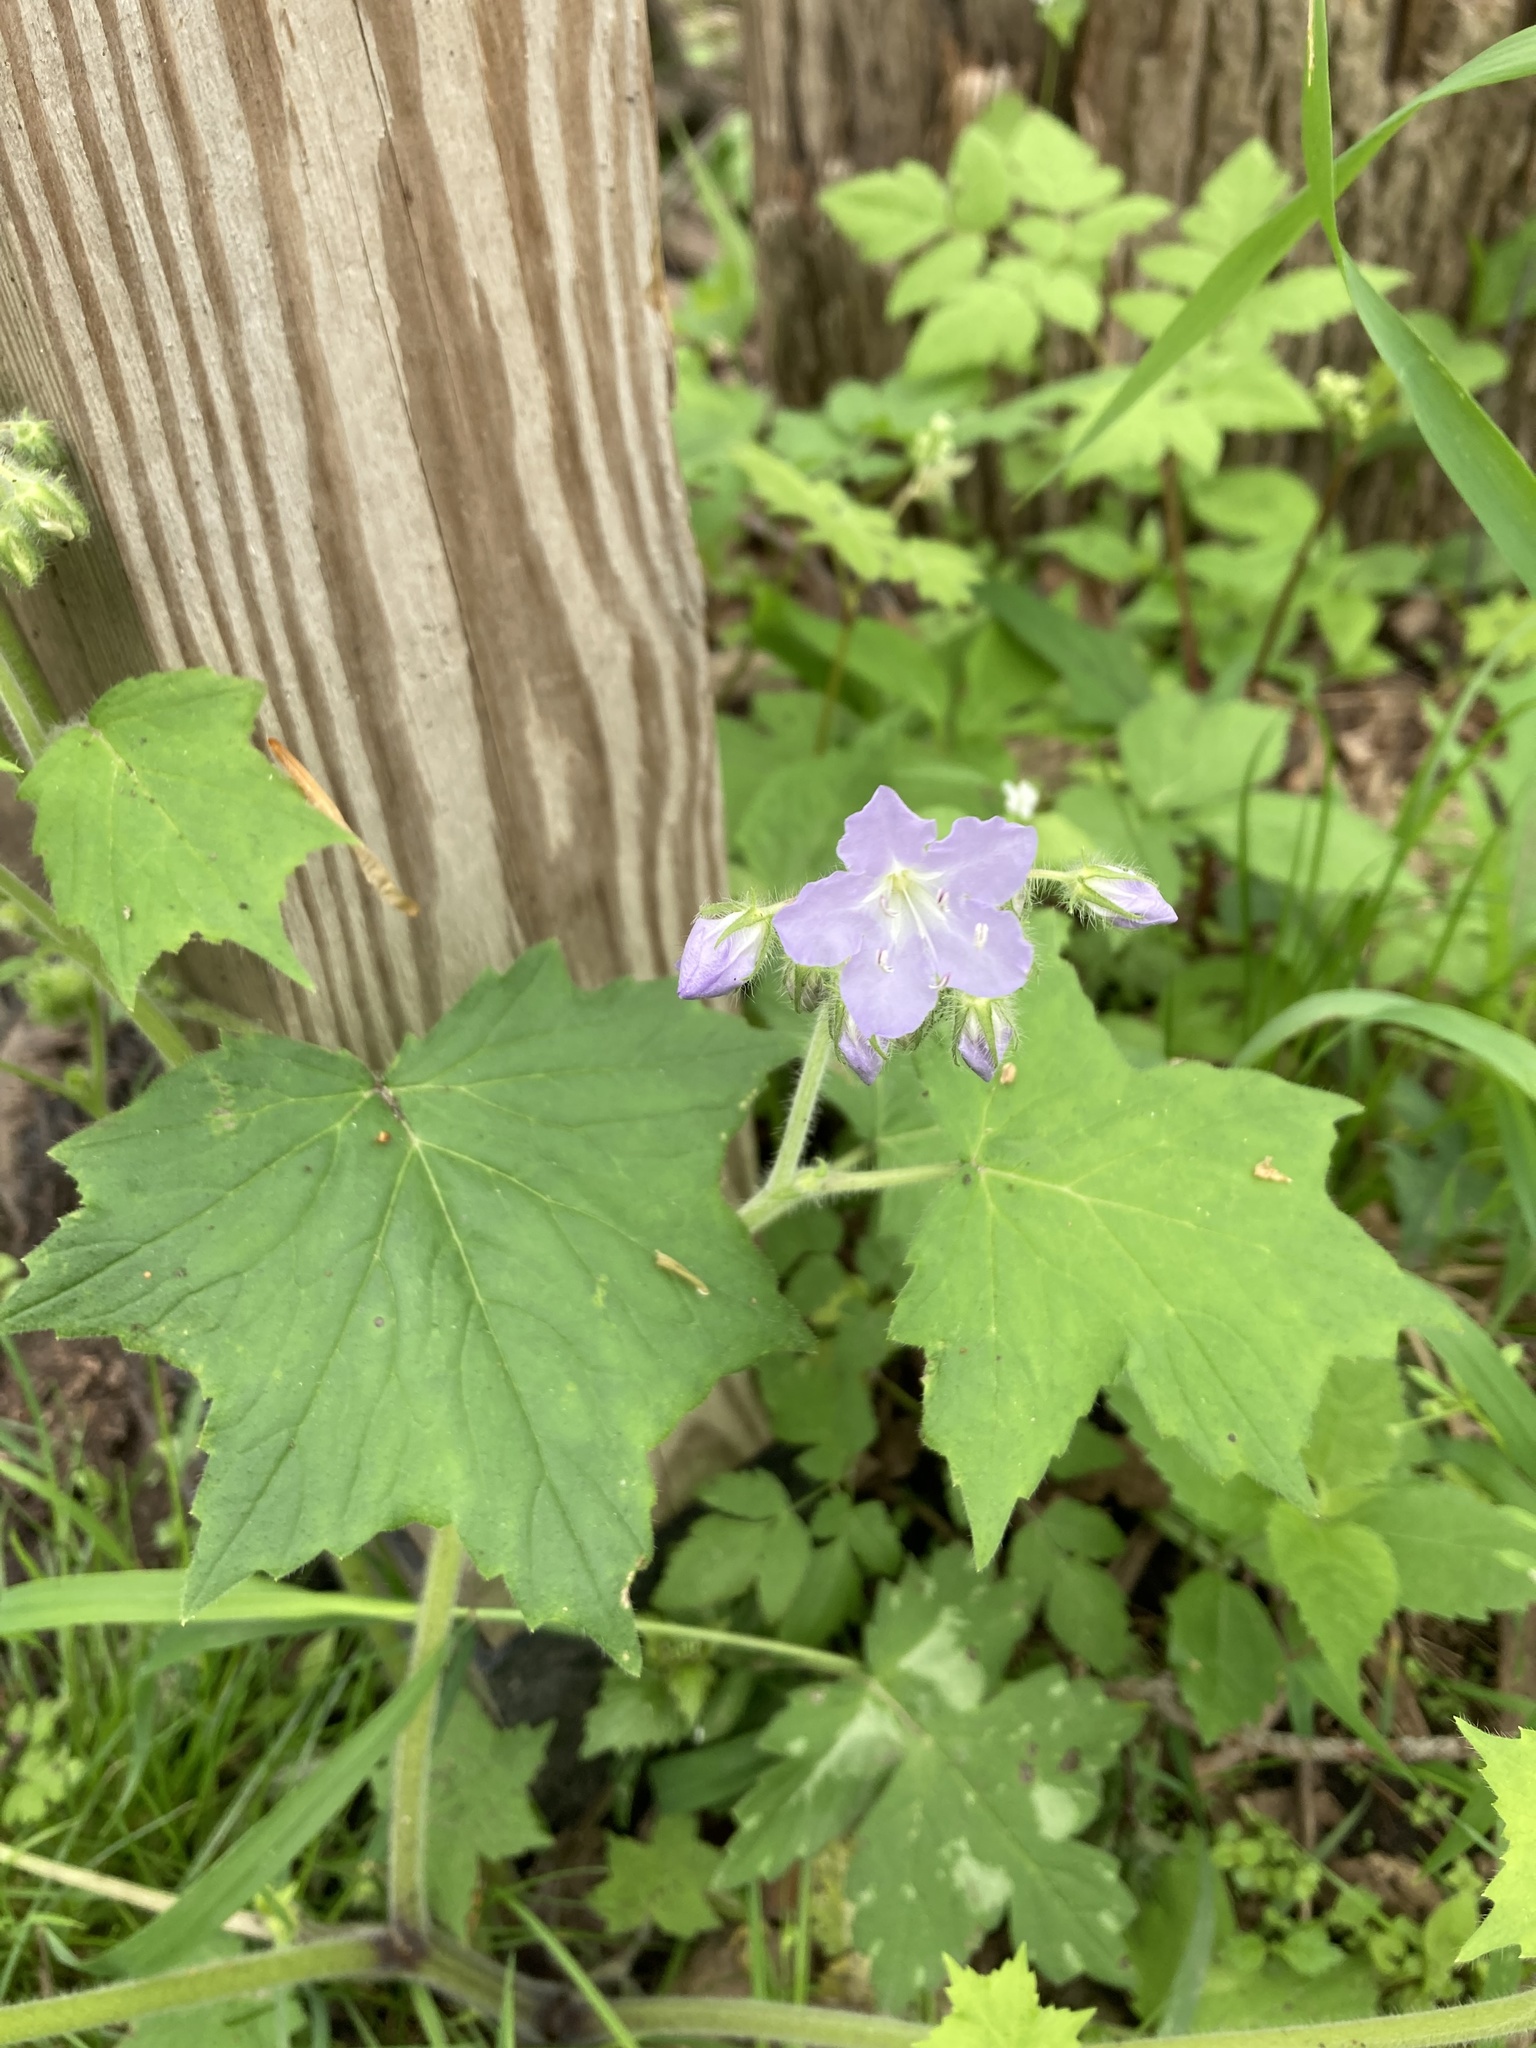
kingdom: Plantae
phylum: Tracheophyta
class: Magnoliopsida
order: Boraginales
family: Hydrophyllaceae
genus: Hydrophyllum
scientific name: Hydrophyllum appendiculatum
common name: Appendaged waterleaf
